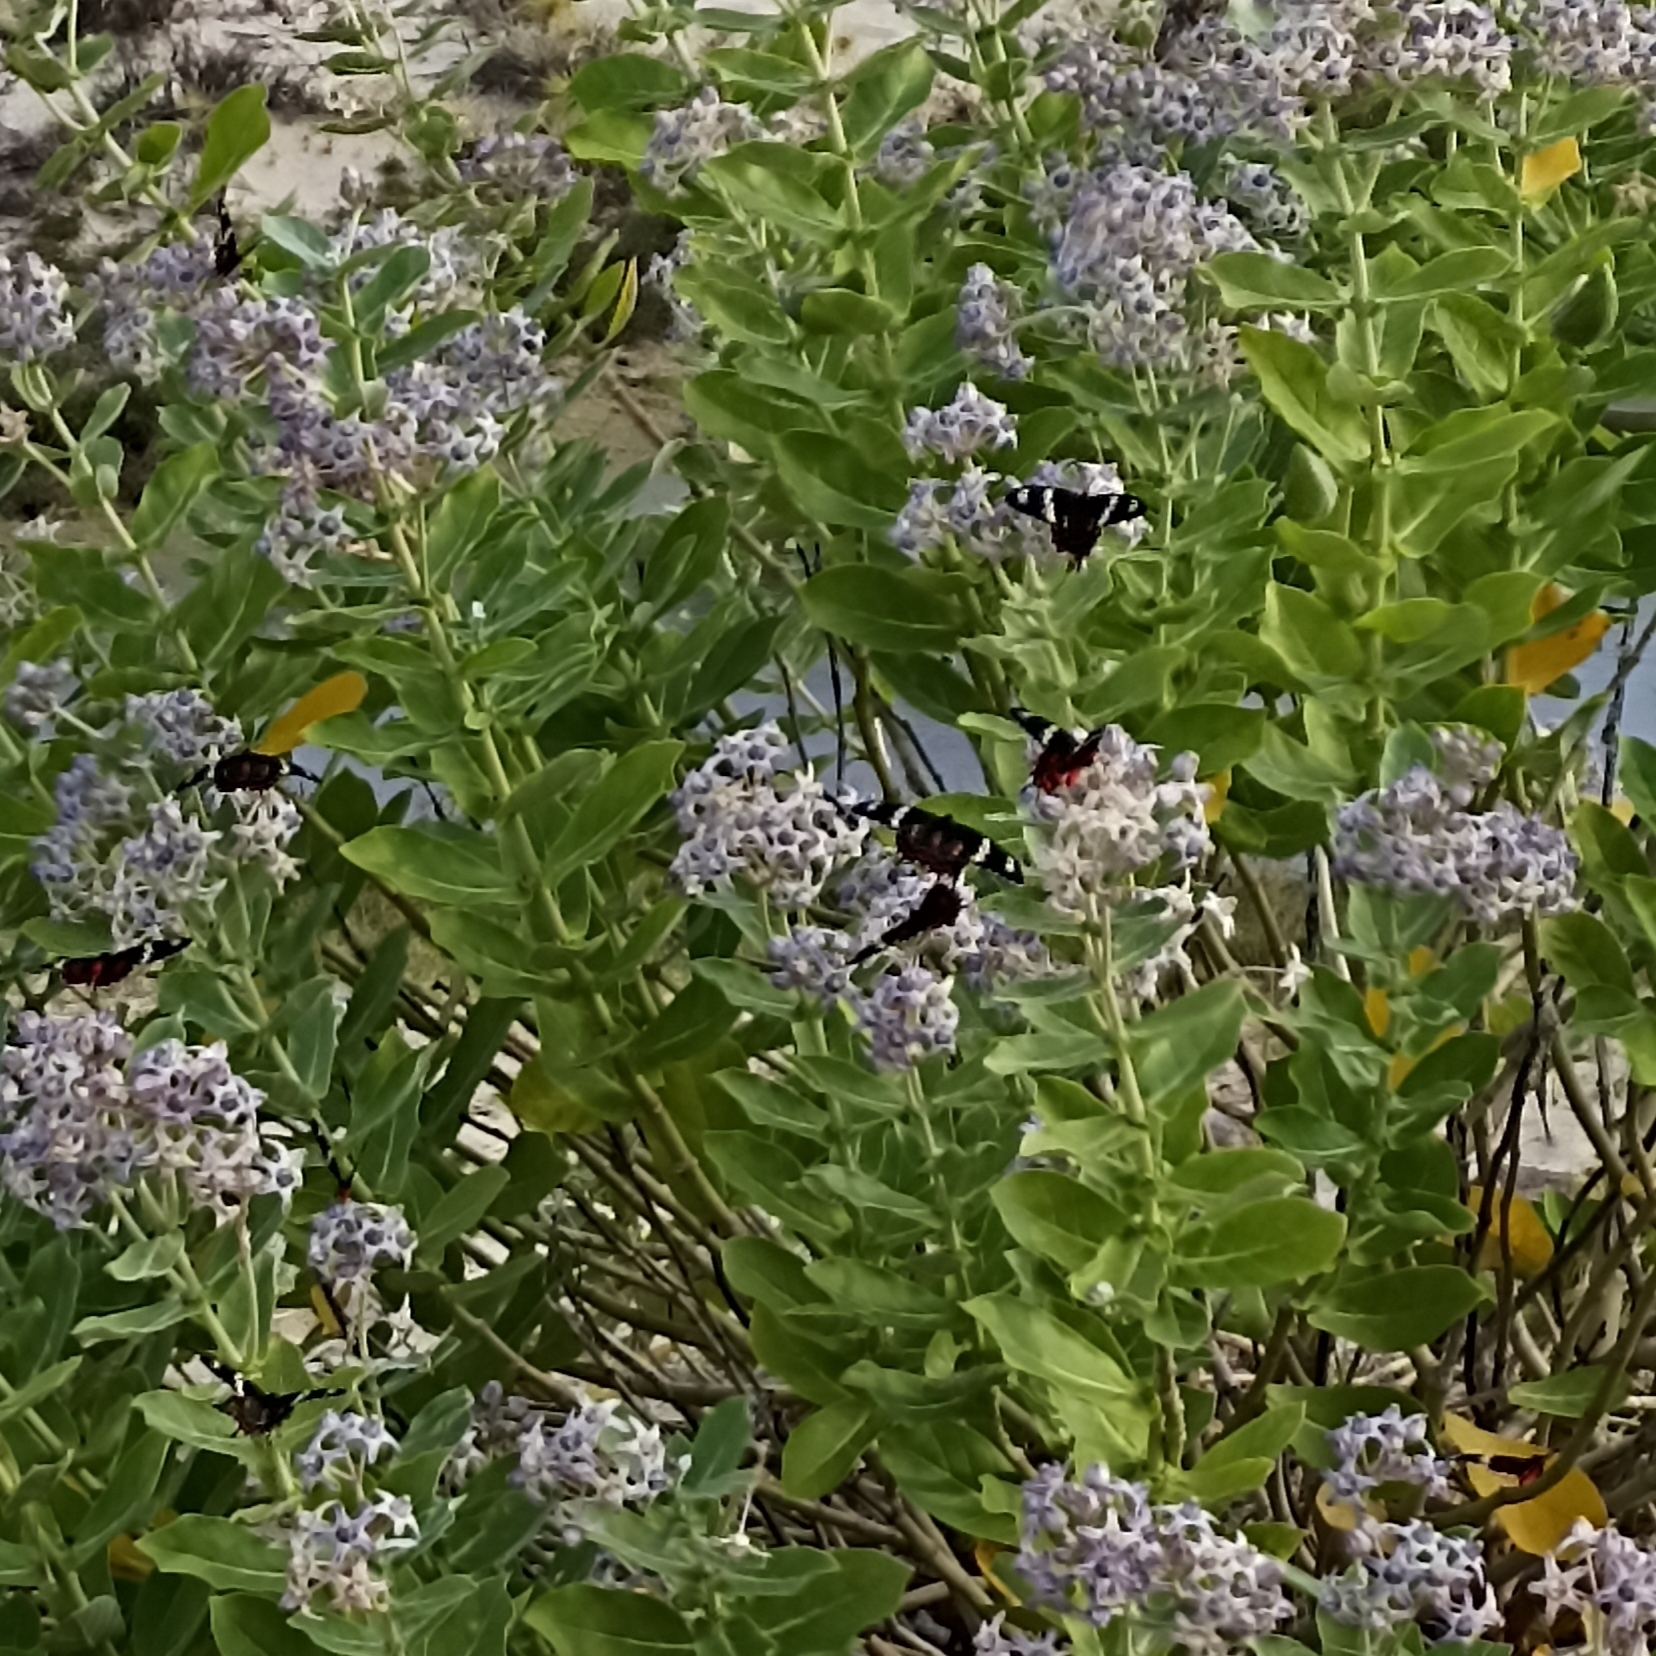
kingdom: Plantae
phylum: Tracheophyta
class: Magnoliopsida
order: Gentianales
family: Apocynaceae
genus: Calotropis
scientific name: Calotropis gigantea
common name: Crown flower
